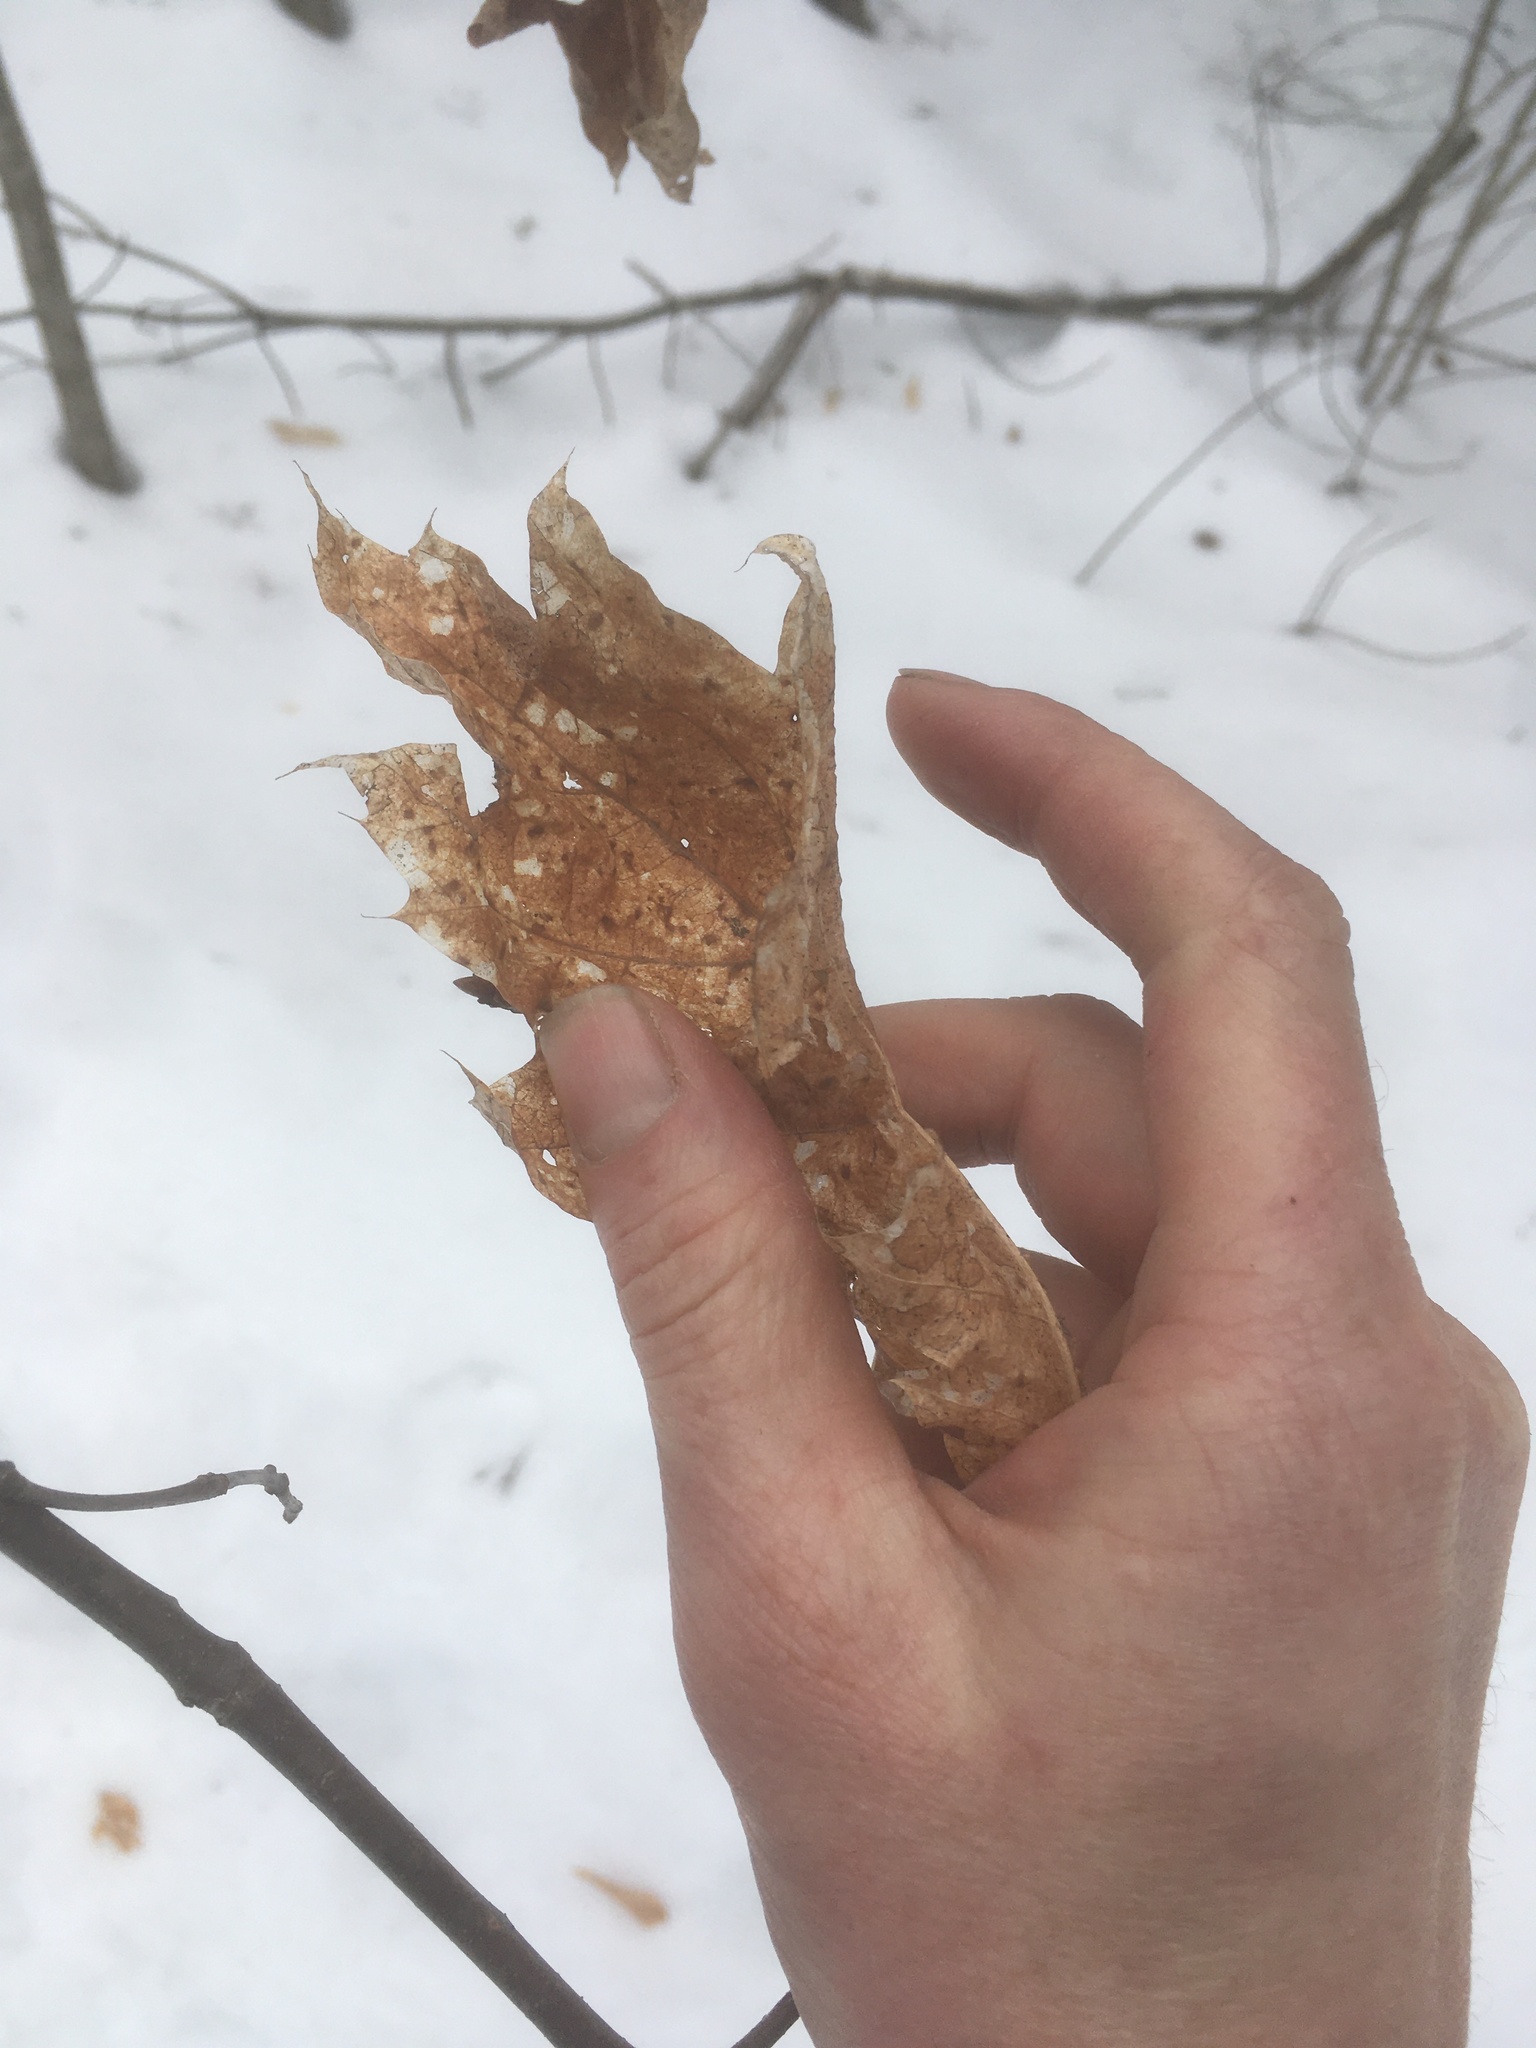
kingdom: Plantae
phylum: Tracheophyta
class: Magnoliopsida
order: Fagales
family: Fagaceae
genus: Quercus
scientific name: Quercus rubra
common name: Red oak
